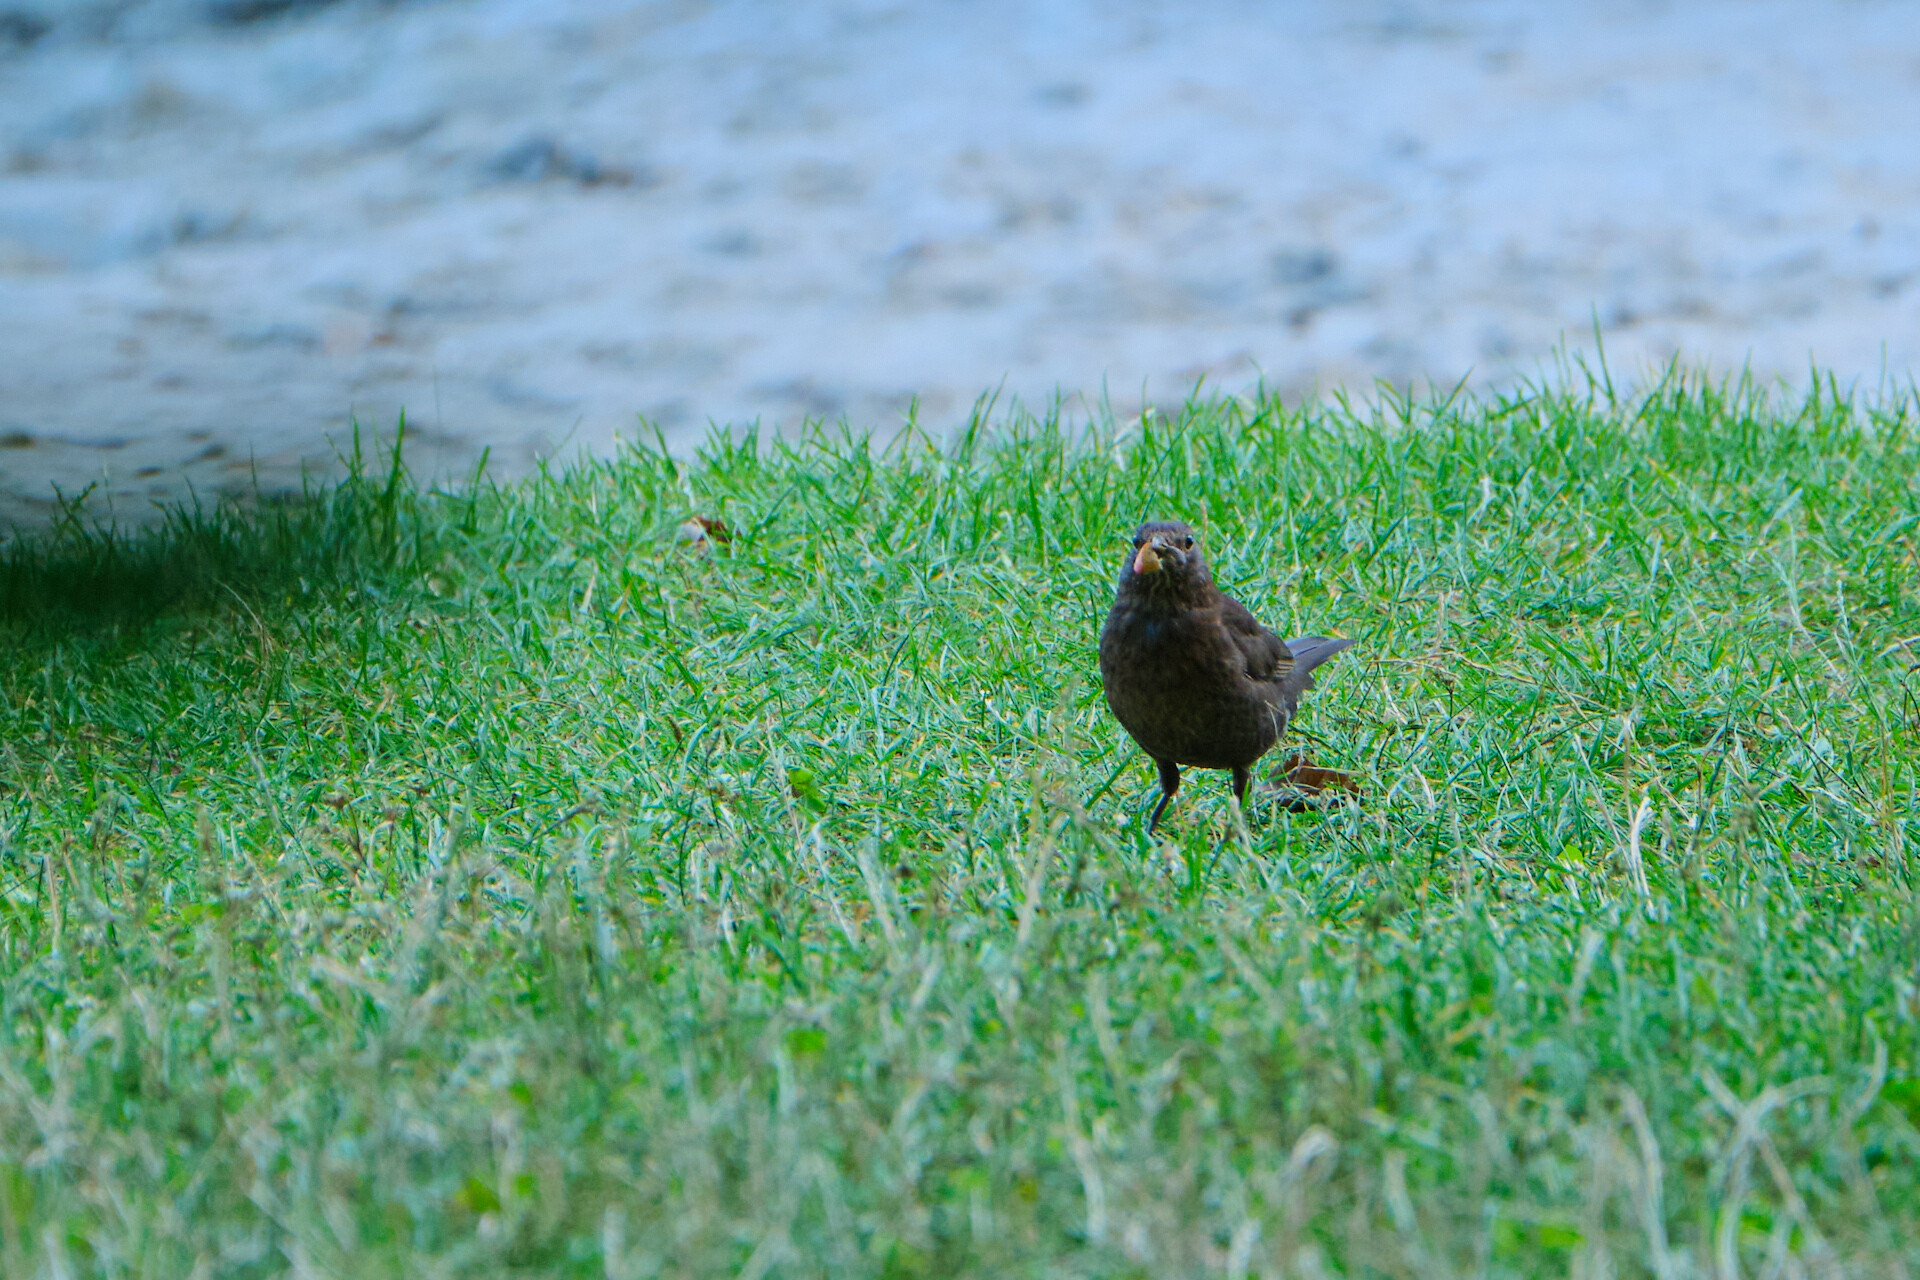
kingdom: Animalia
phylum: Chordata
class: Aves
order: Passeriformes
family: Turdidae
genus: Turdus
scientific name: Turdus merula
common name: Common blackbird
